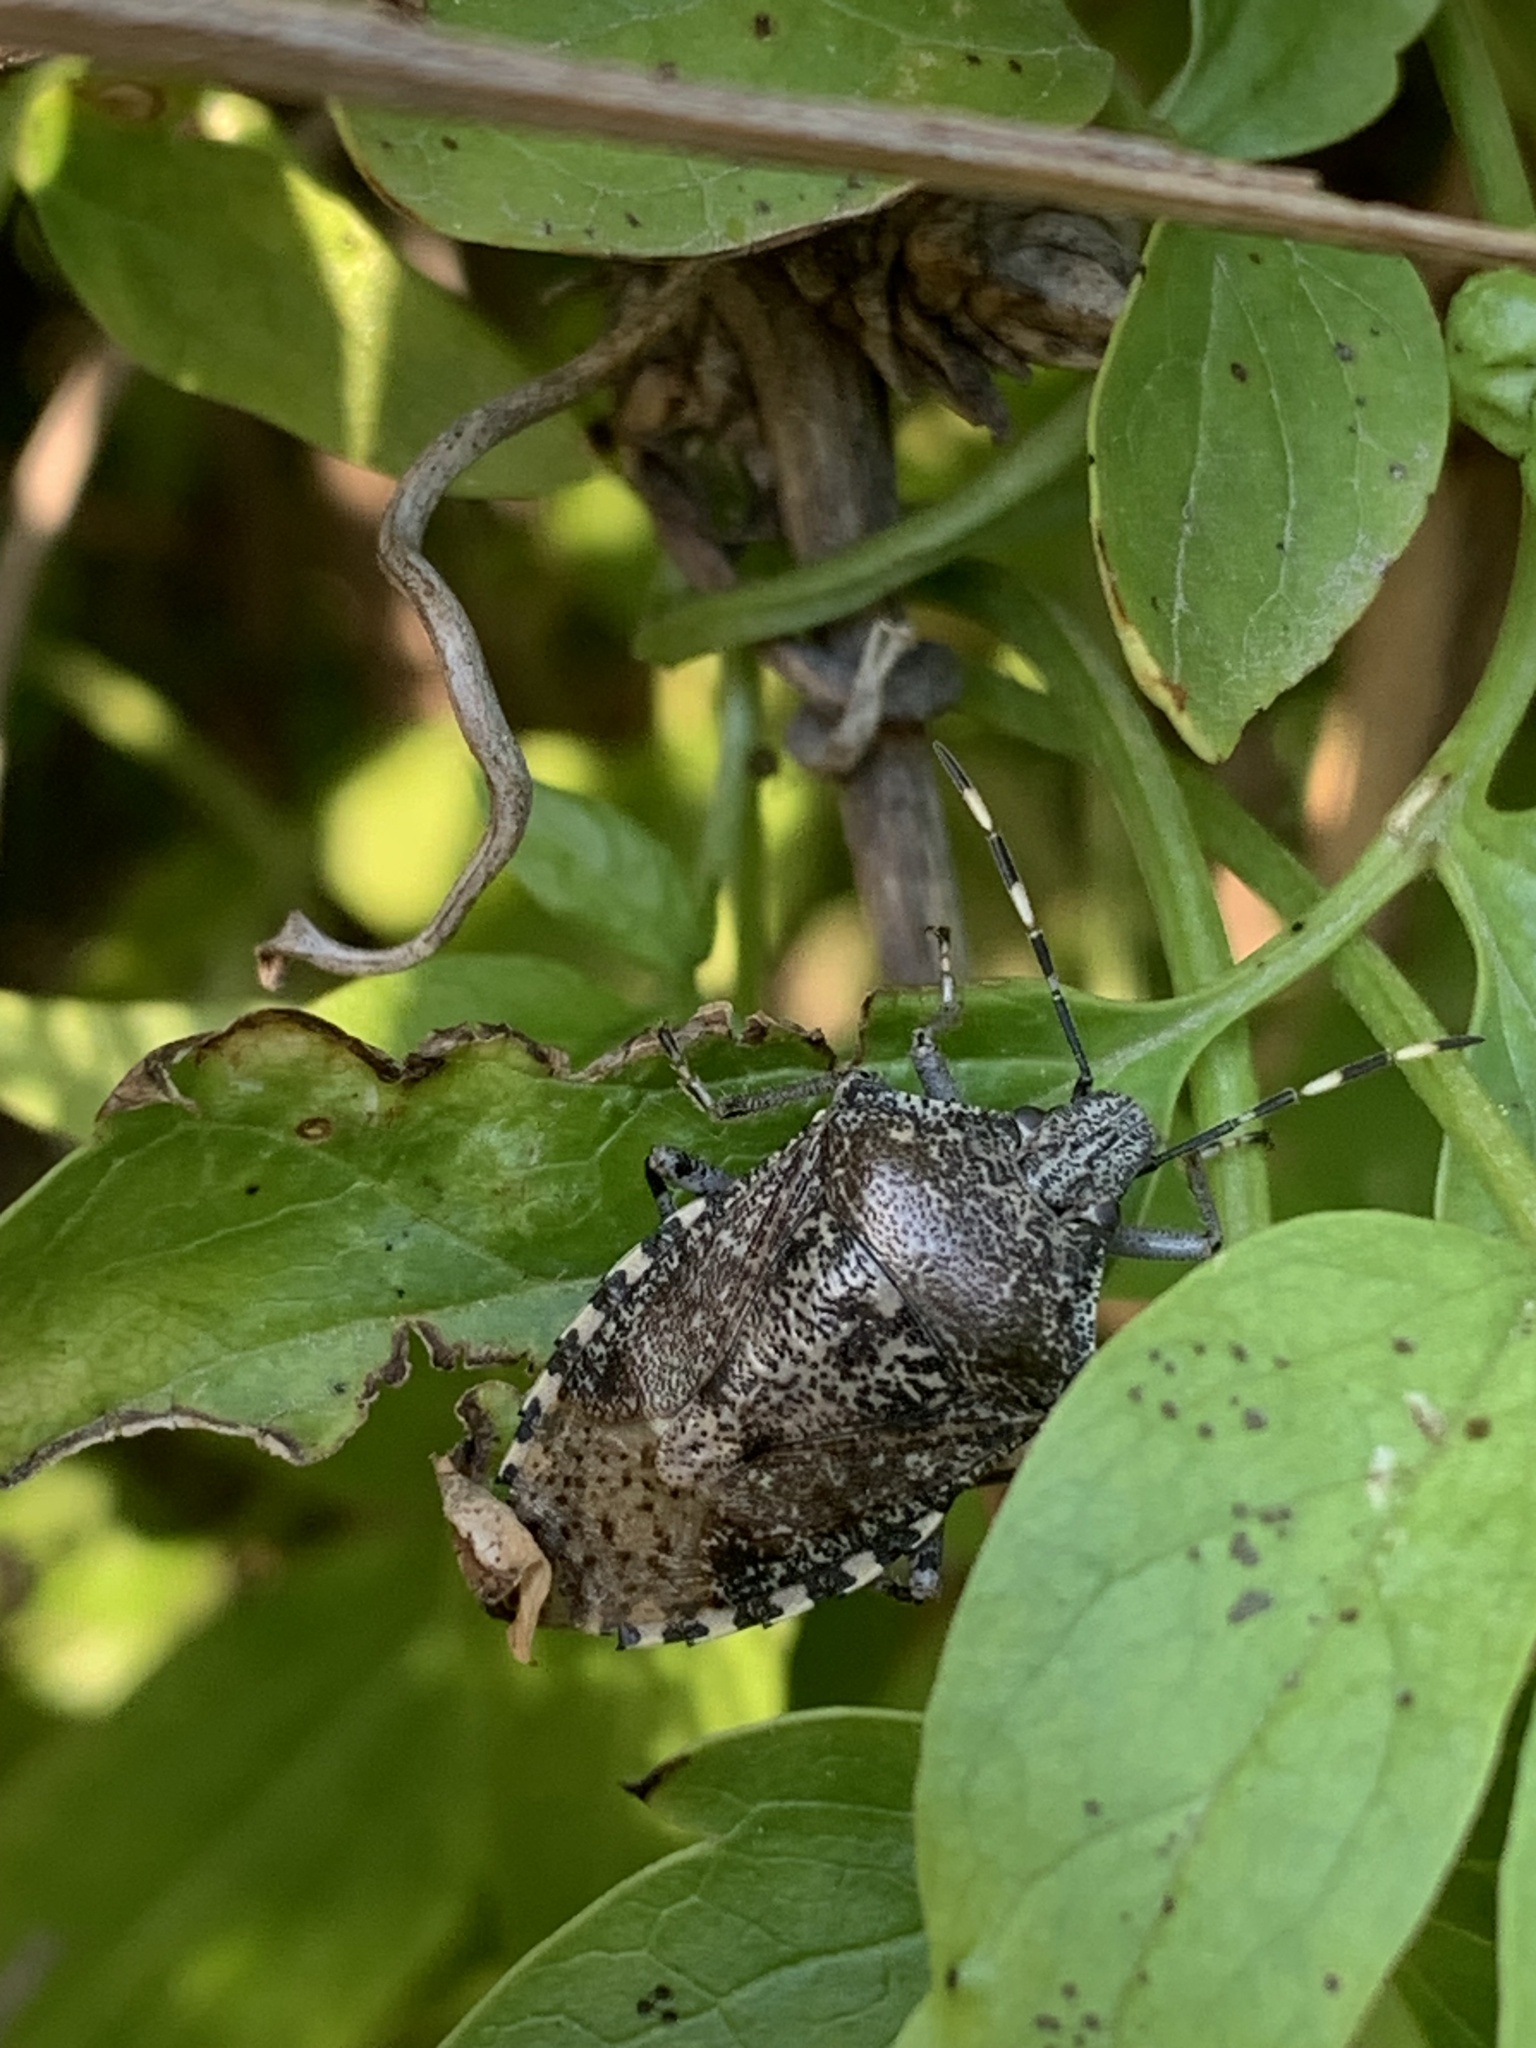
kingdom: Animalia
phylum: Arthropoda
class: Insecta
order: Hemiptera
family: Pentatomidae
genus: Rhaphigaster
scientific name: Rhaphigaster nebulosa
